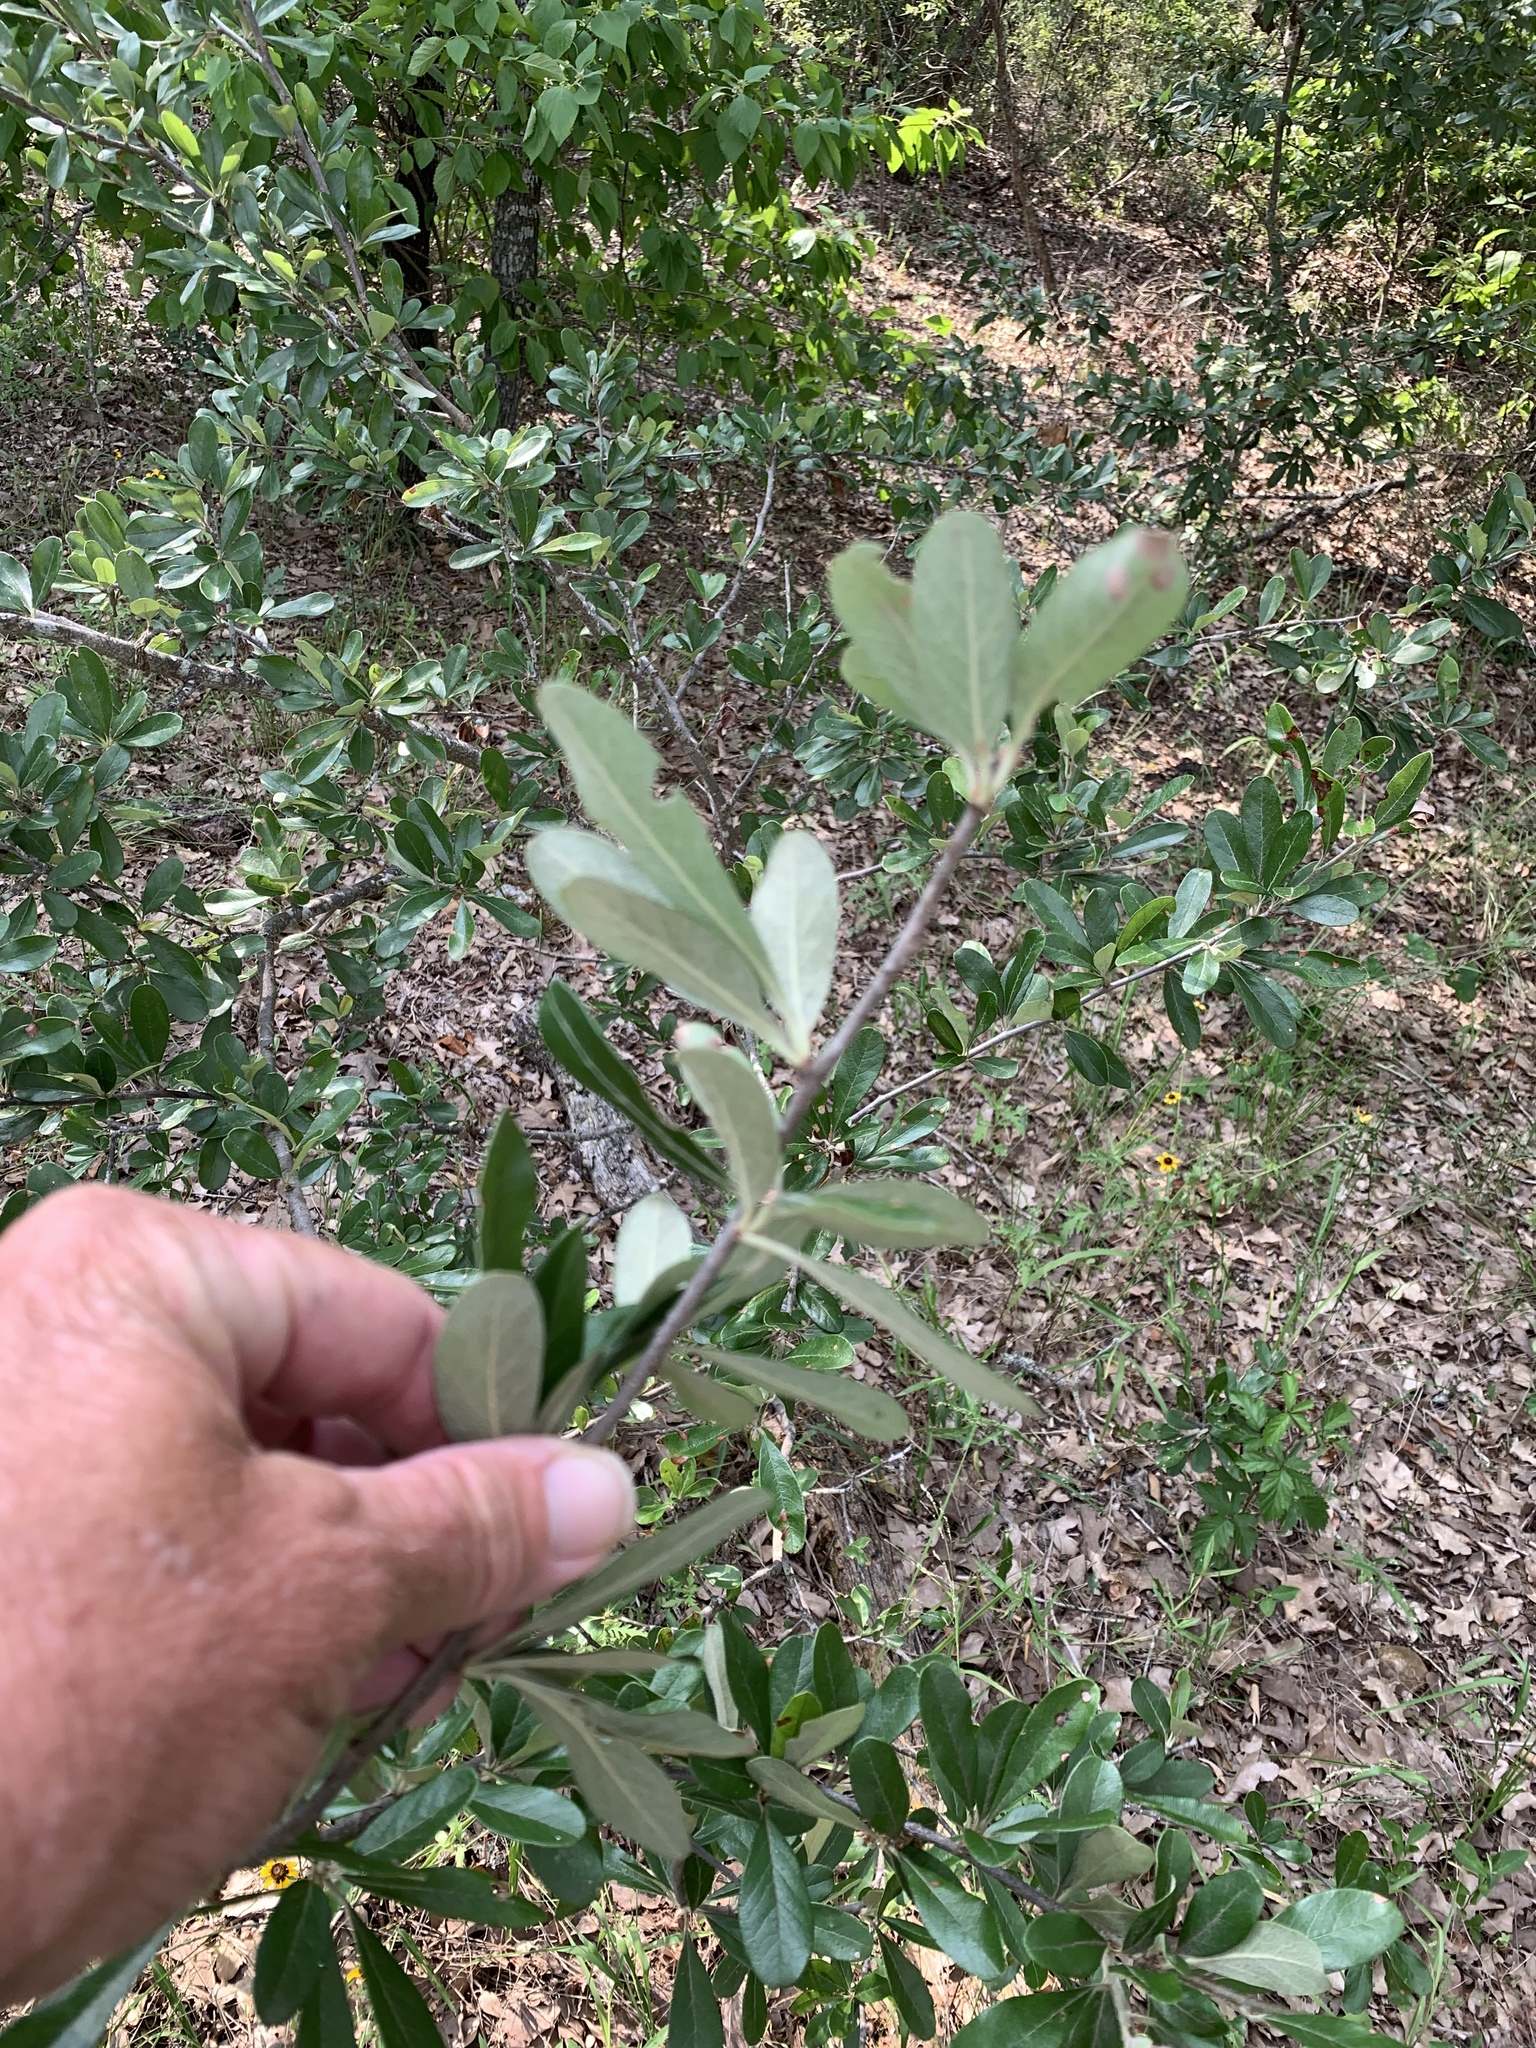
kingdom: Plantae
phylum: Tracheophyta
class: Magnoliopsida
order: Ericales
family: Sapotaceae
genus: Sideroxylon
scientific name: Sideroxylon lanuginosum
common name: Chittamwood
